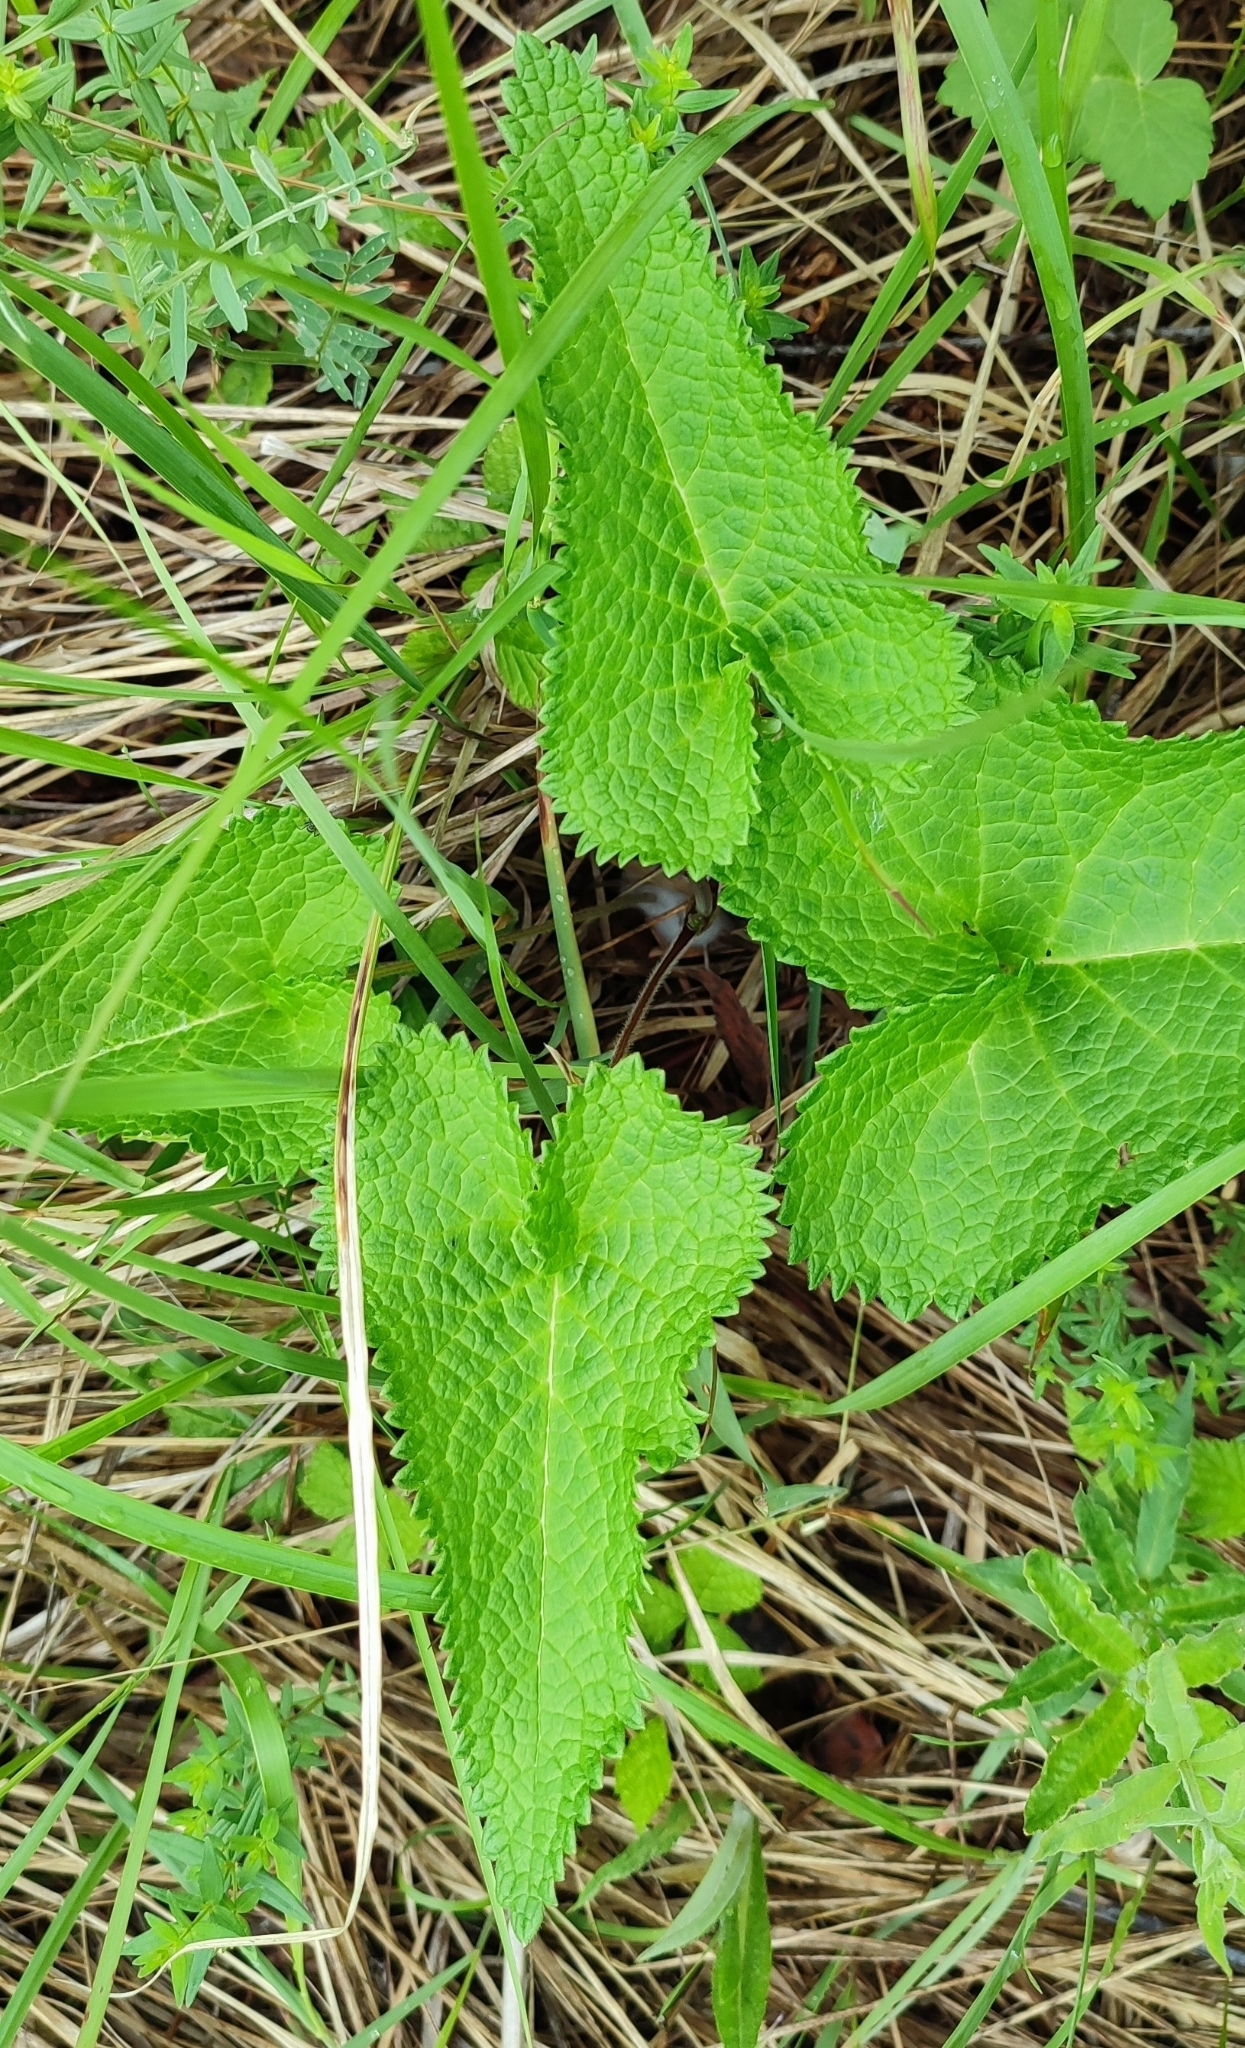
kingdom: Plantae
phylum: Tracheophyta
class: Magnoliopsida
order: Lamiales
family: Lamiaceae
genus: Phlomoides
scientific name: Phlomoides tuberosa
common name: Tuberous jerusalem sage
